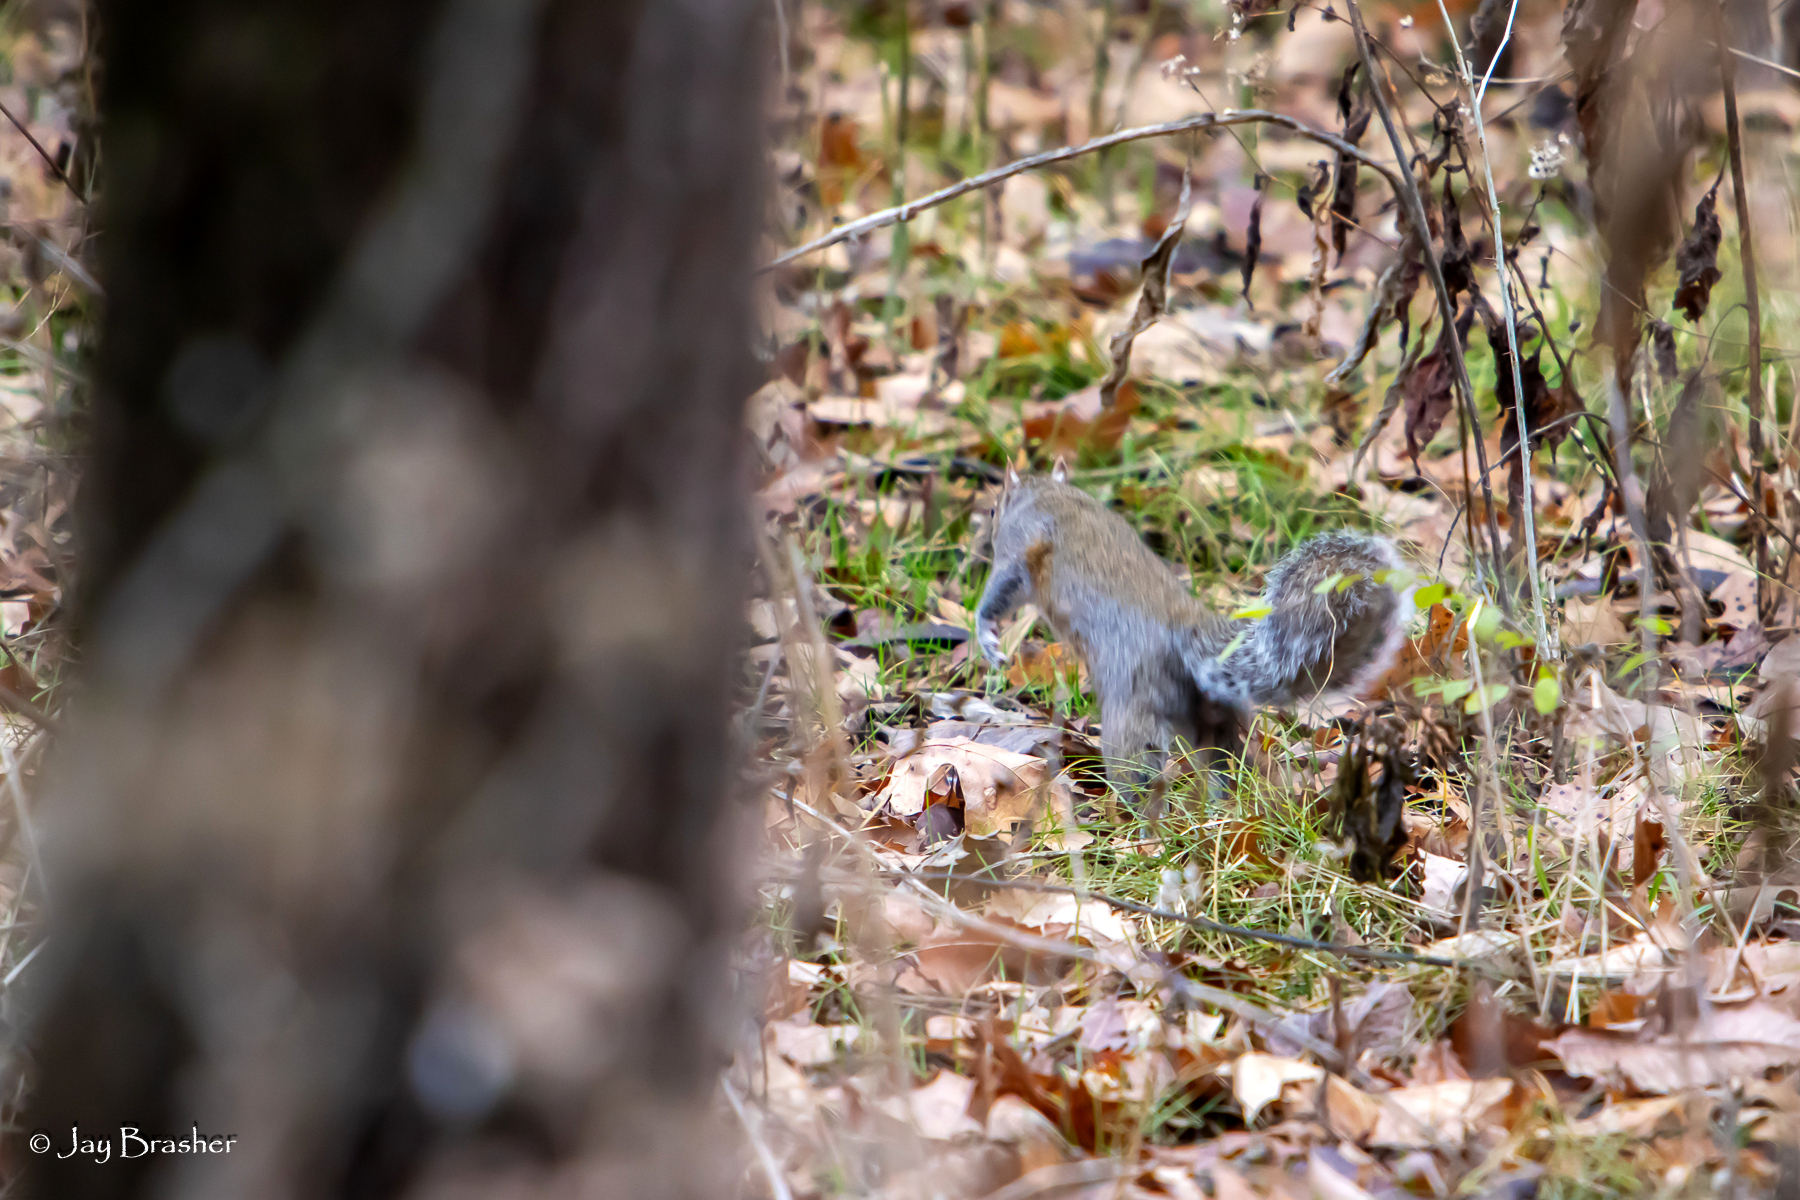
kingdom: Animalia
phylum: Chordata
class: Mammalia
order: Rodentia
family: Sciuridae
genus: Sciurus
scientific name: Sciurus carolinensis
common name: Eastern gray squirrel
